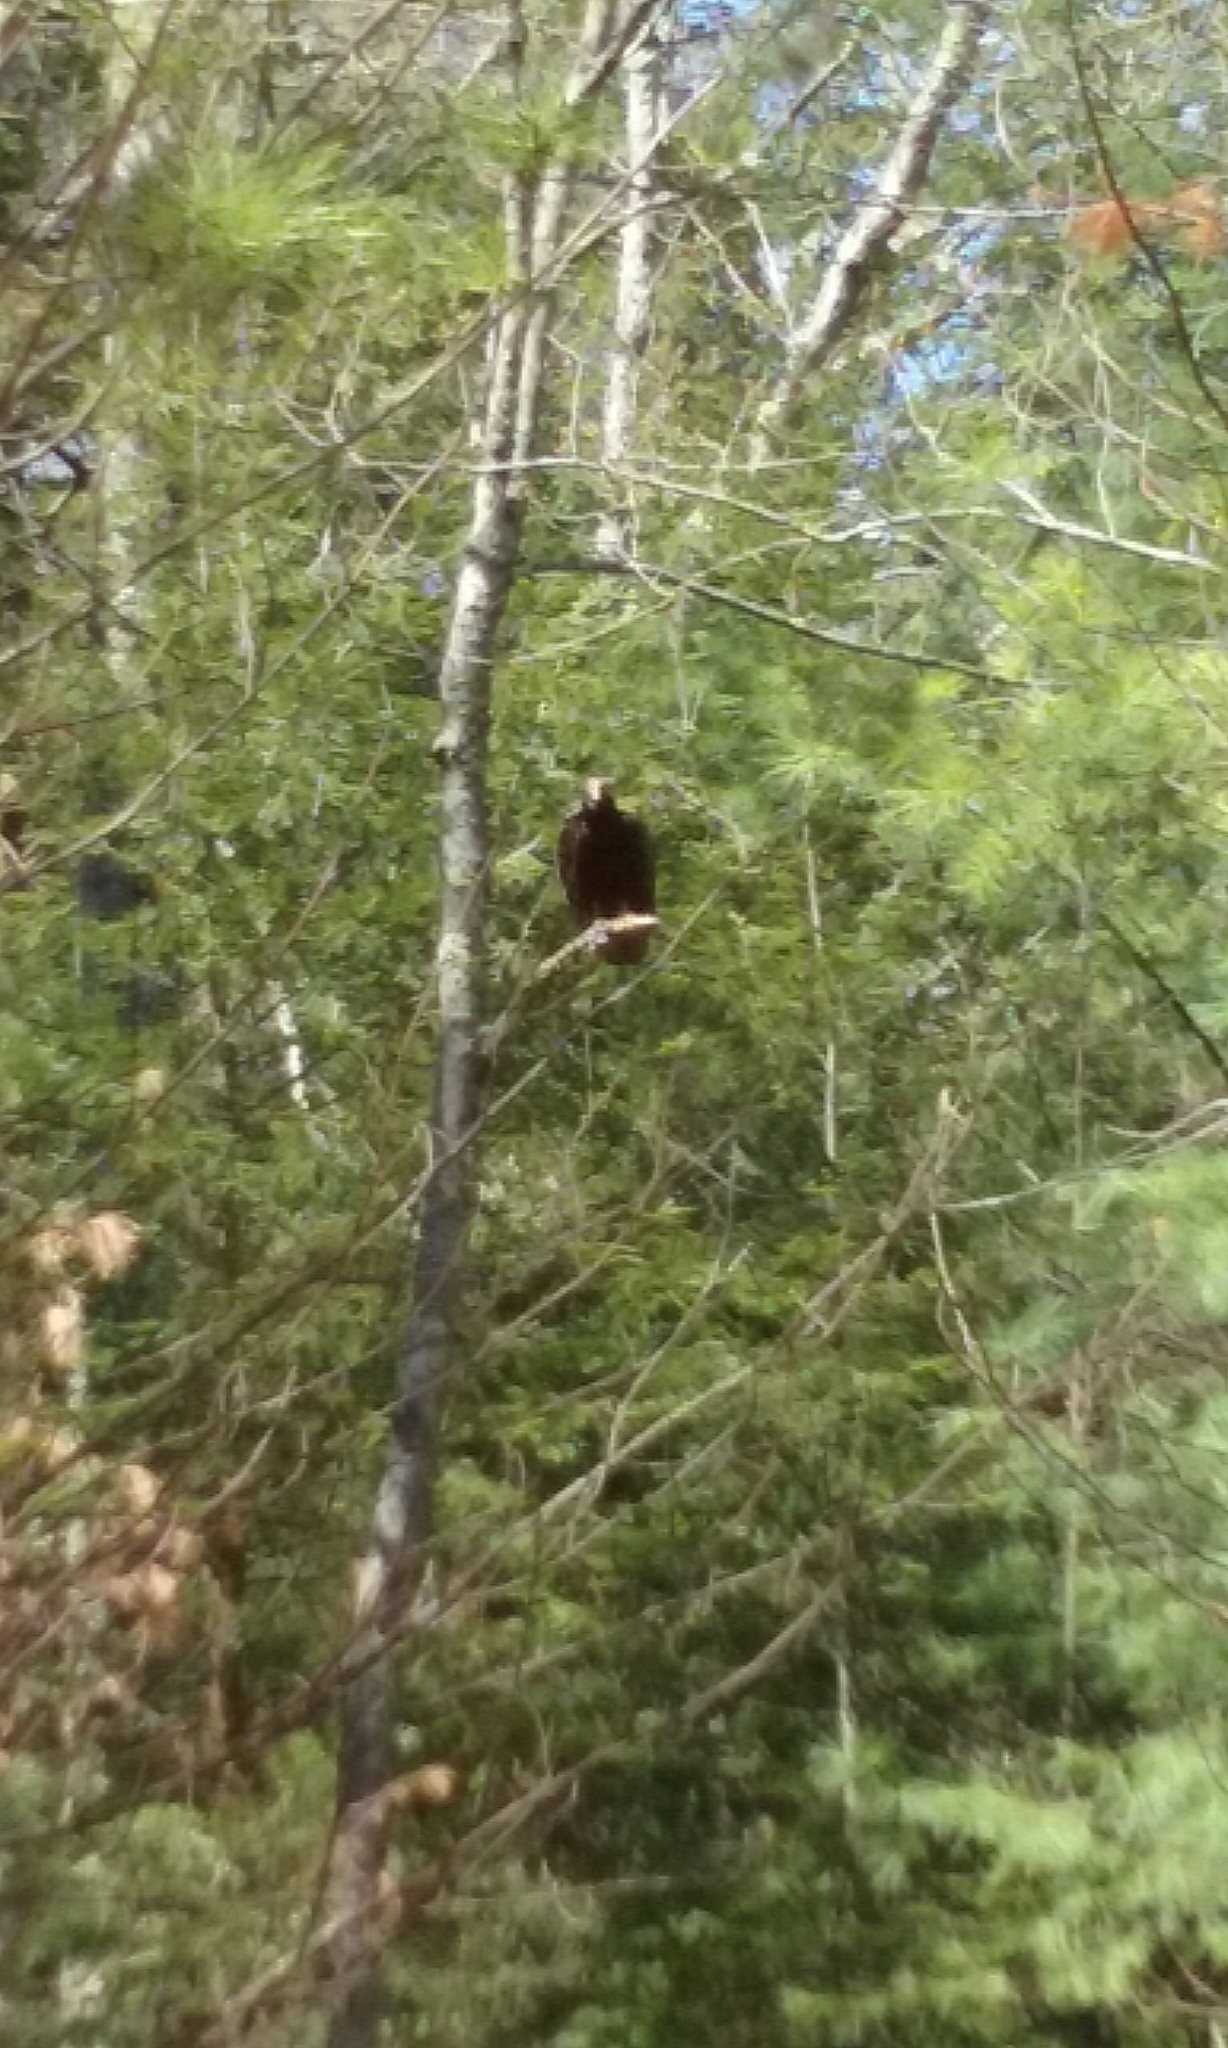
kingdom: Animalia
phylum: Chordata
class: Aves
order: Accipitriformes
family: Cathartidae
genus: Cathartes
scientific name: Cathartes aura
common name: Turkey vulture
